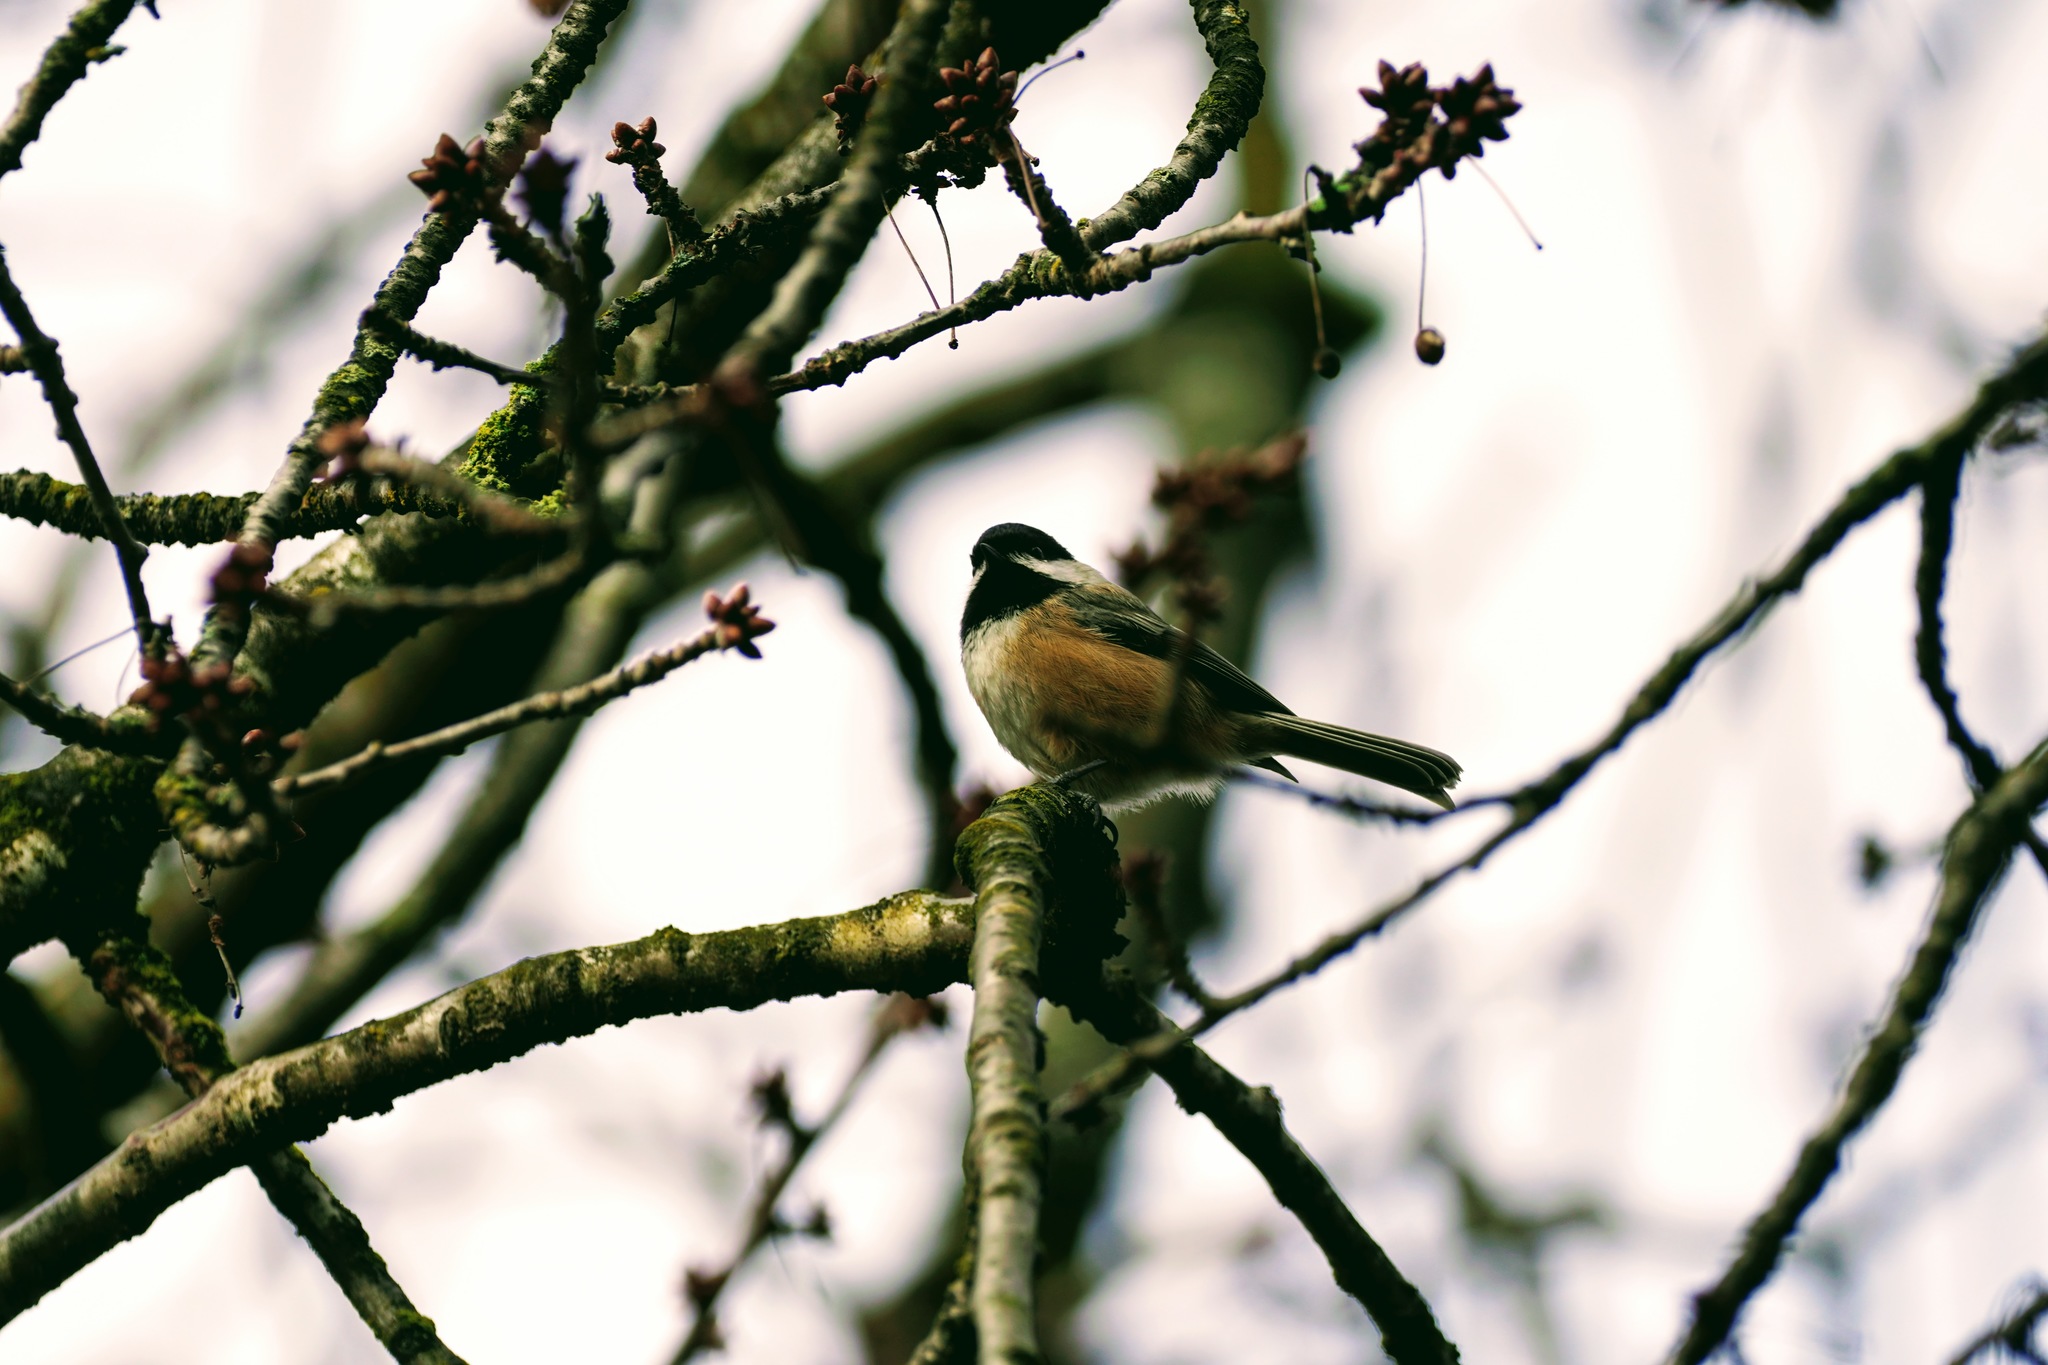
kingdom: Animalia
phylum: Chordata
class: Aves
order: Passeriformes
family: Paridae
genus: Poecile
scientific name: Poecile atricapillus
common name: Black-capped chickadee
